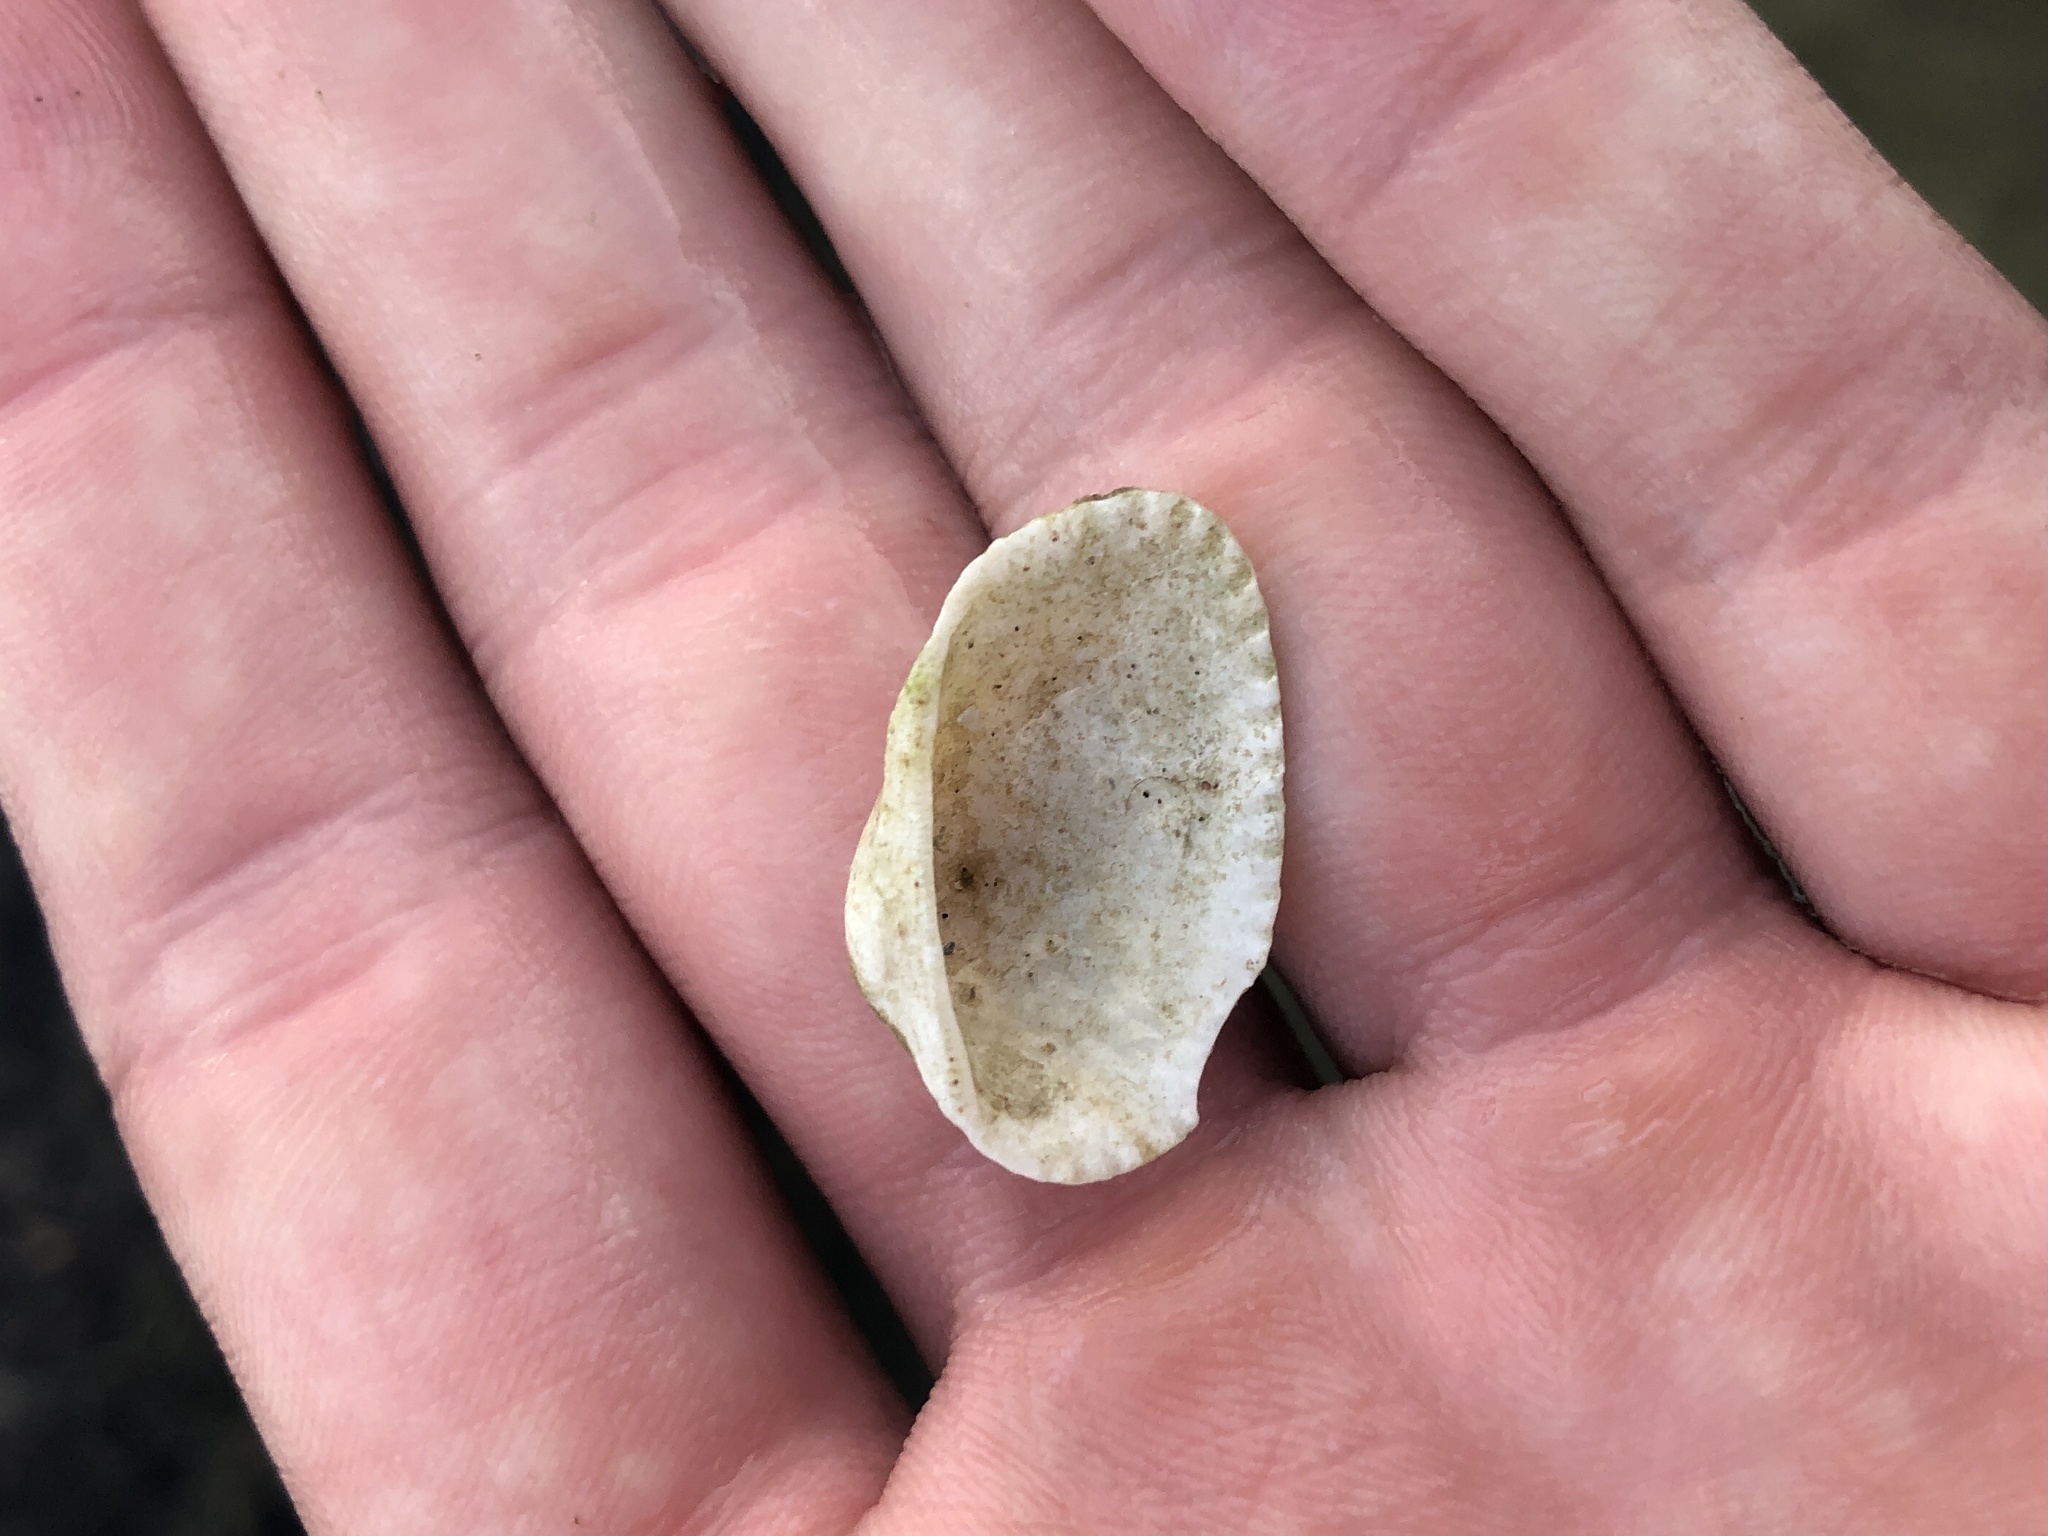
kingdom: Animalia
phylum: Mollusca
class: Bivalvia
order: Arcida
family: Arcidae
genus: Anadara
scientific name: Anadara transversa
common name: Transverse ark
